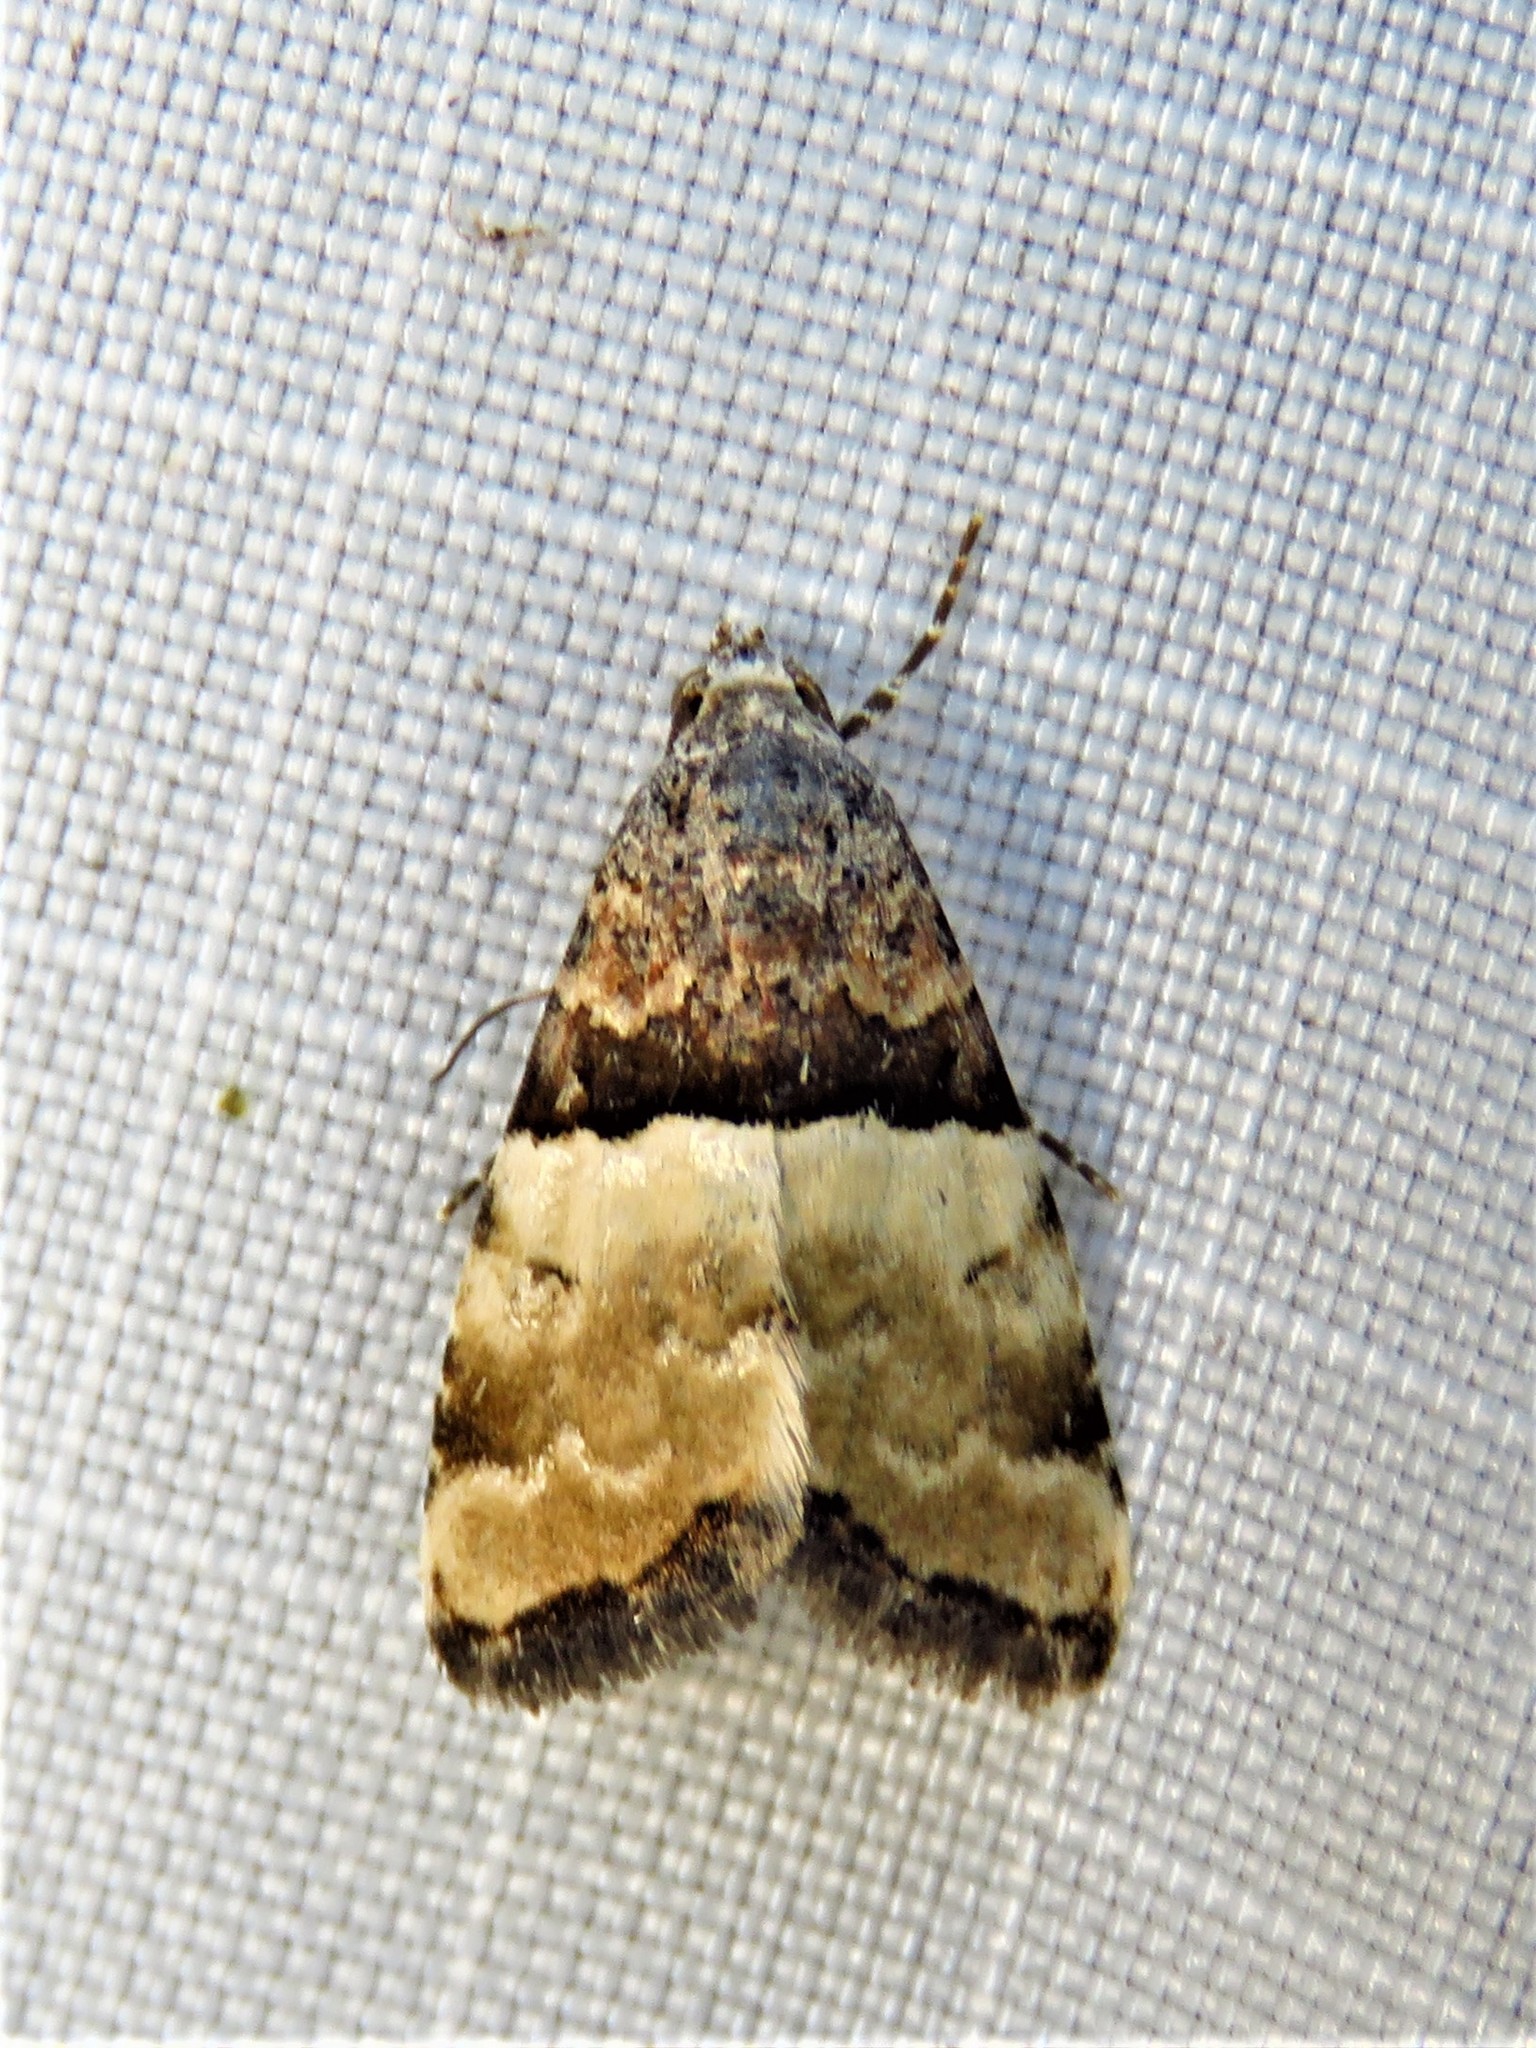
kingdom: Animalia
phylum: Arthropoda
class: Insecta
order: Lepidoptera
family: Noctuidae
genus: Cobubatha
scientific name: Cobubatha dividua
